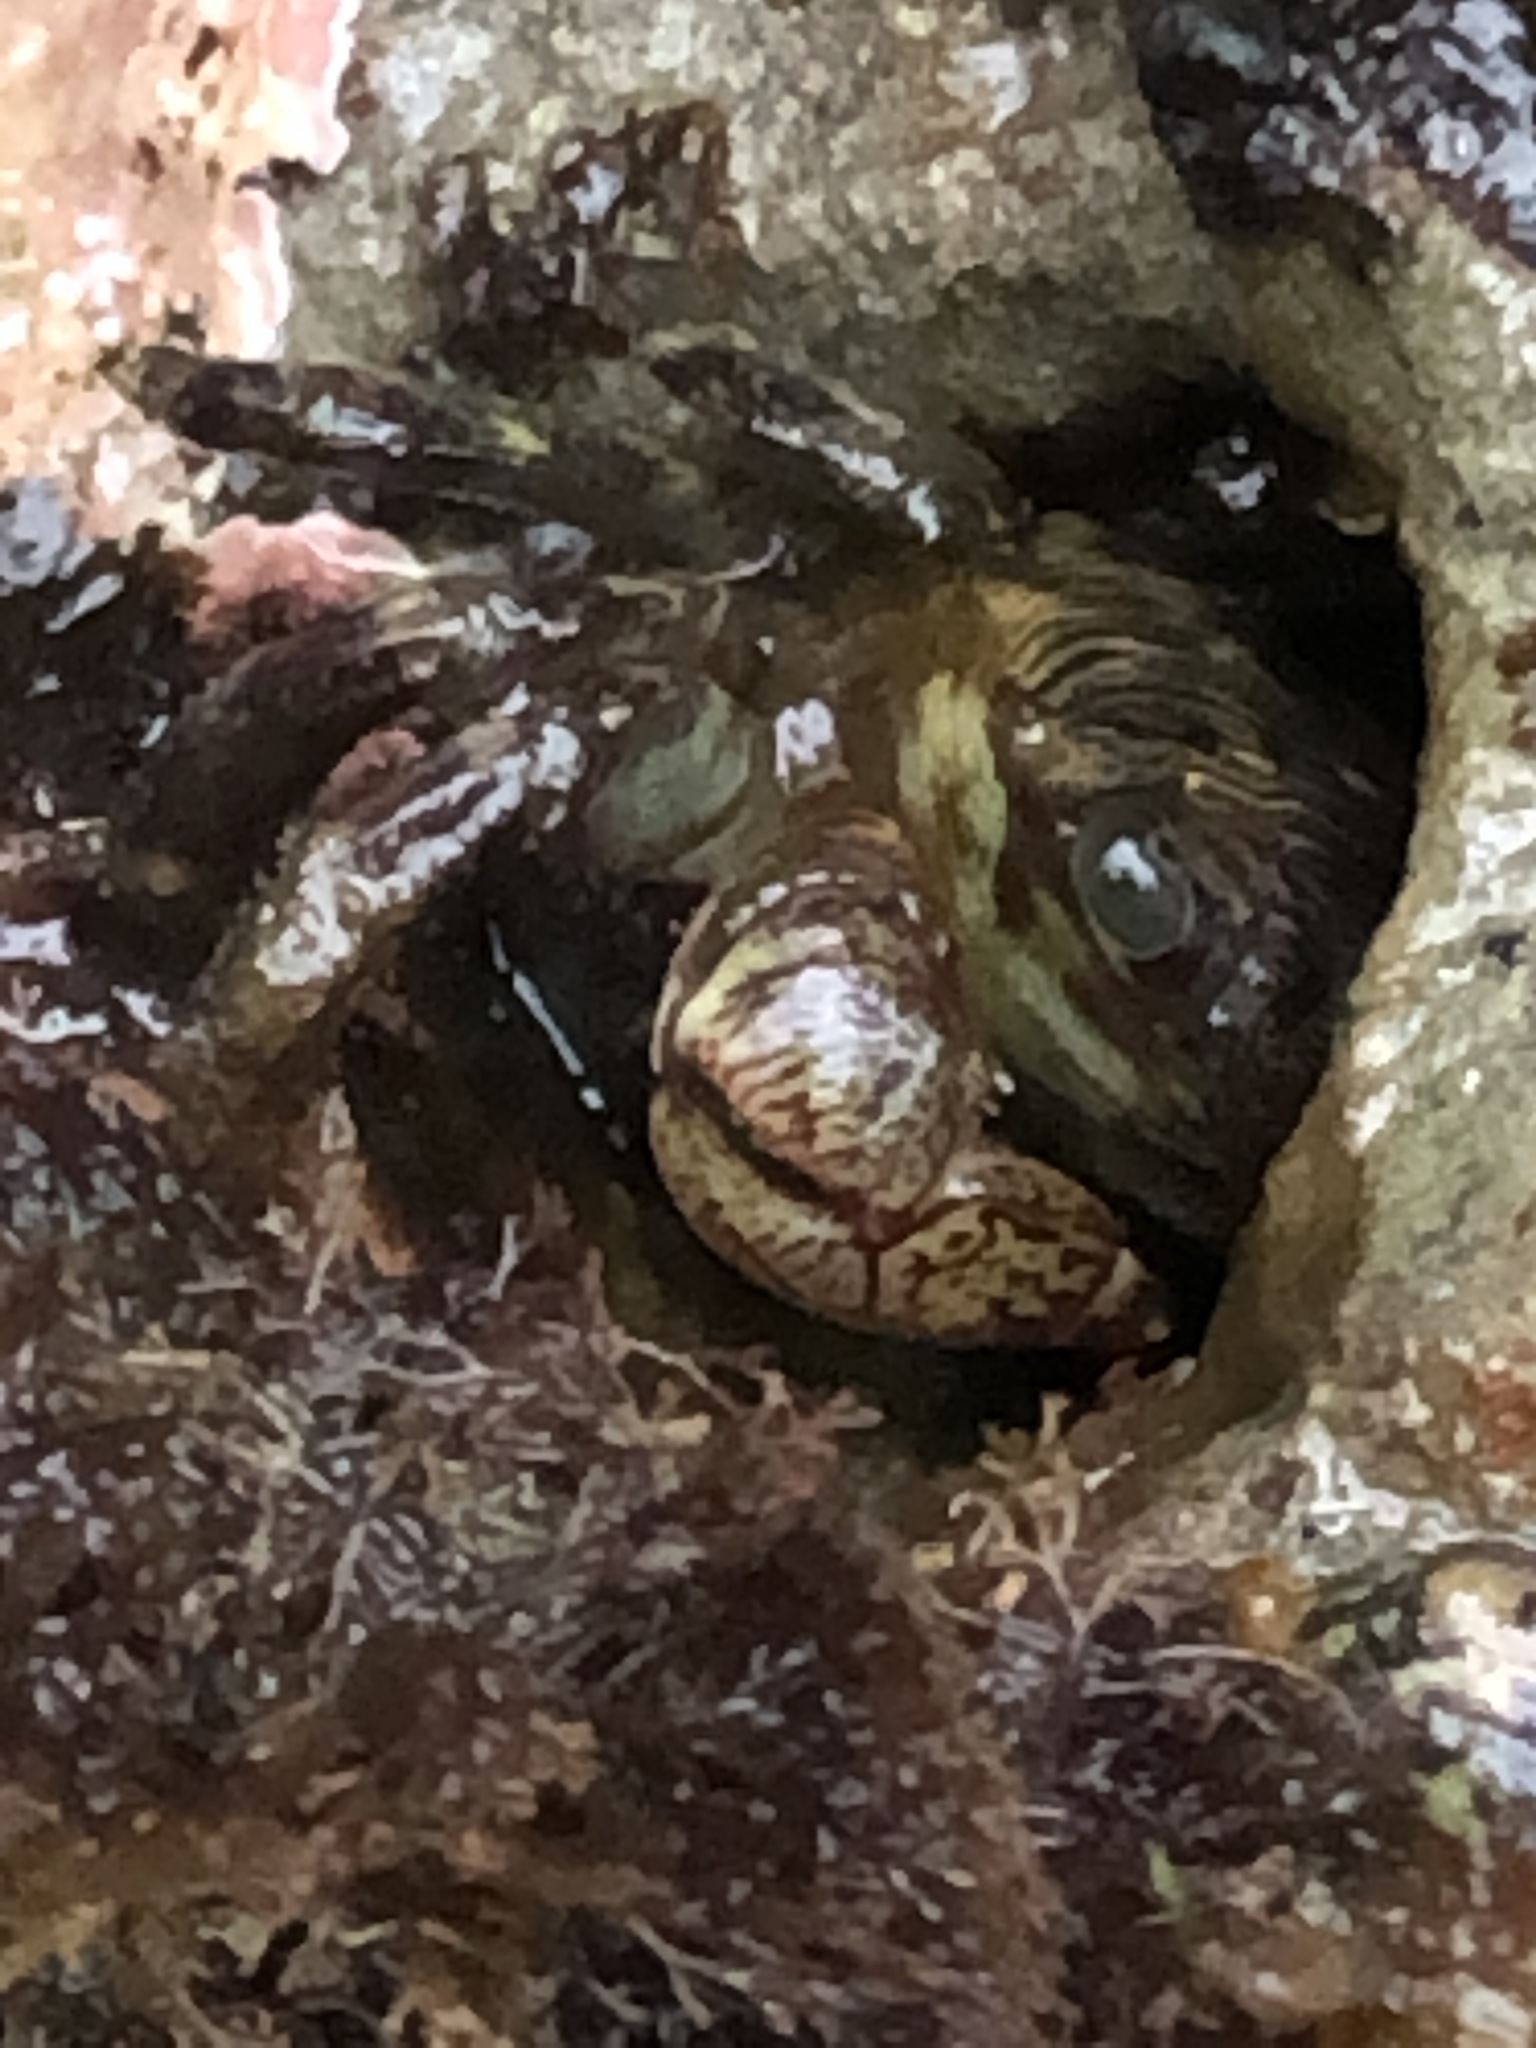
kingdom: Animalia
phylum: Arthropoda
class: Malacostraca
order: Decapoda
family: Grapsidae
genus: Pachygrapsus
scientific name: Pachygrapsus crassipes
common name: Striped shore crab
